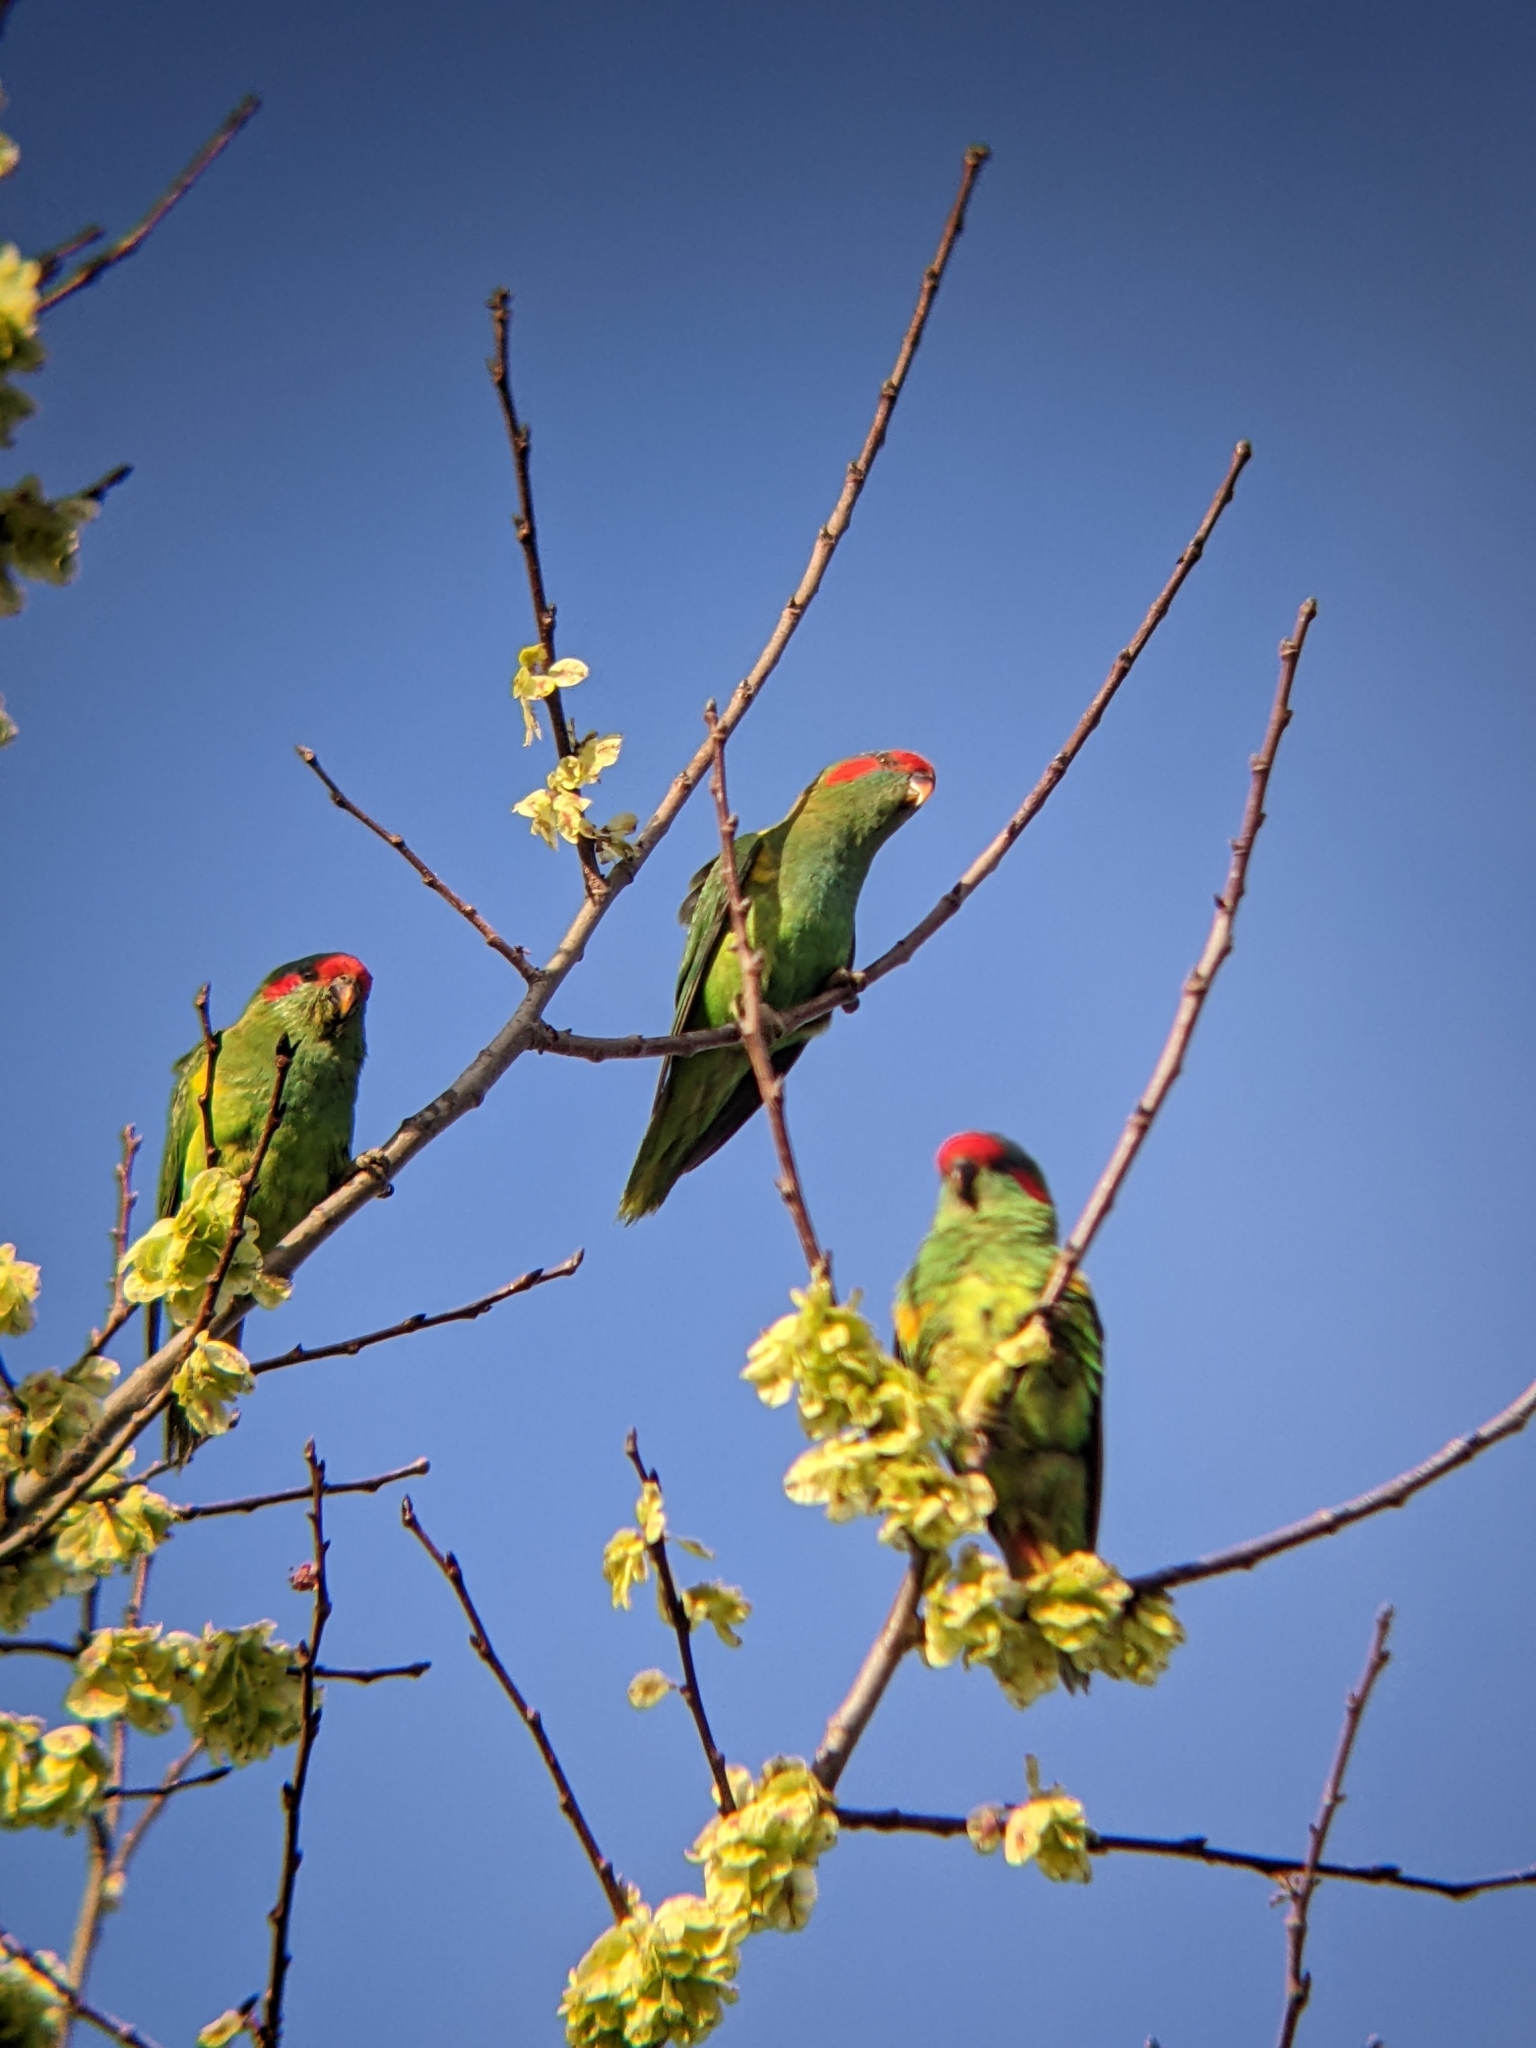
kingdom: Animalia
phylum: Chordata
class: Aves
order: Psittaciformes
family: Psittacidae
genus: Glossopsitta
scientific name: Glossopsitta concinna
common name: Musk lorikeet
